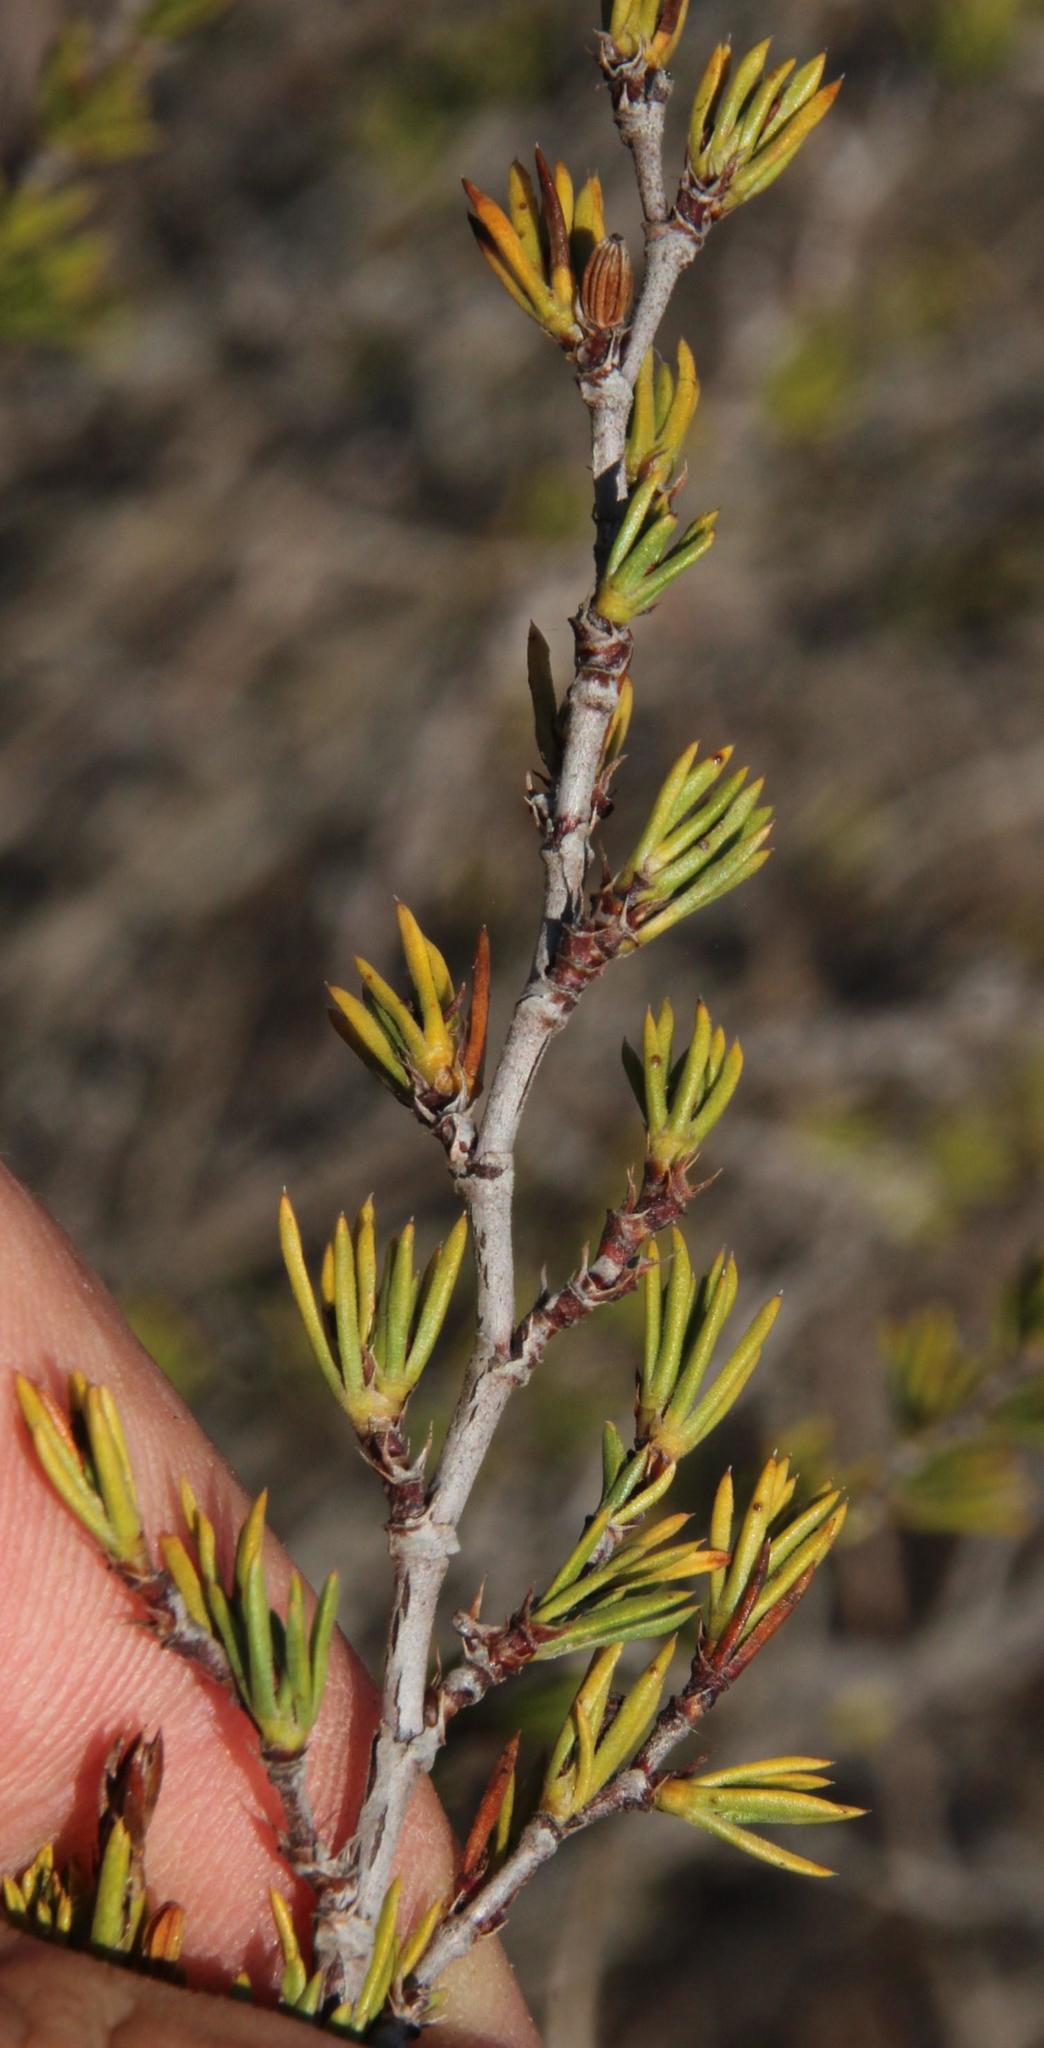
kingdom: Plantae
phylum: Tracheophyta
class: Magnoliopsida
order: Rosales
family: Rosaceae
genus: Cliffortia
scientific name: Cliffortia juniperina
